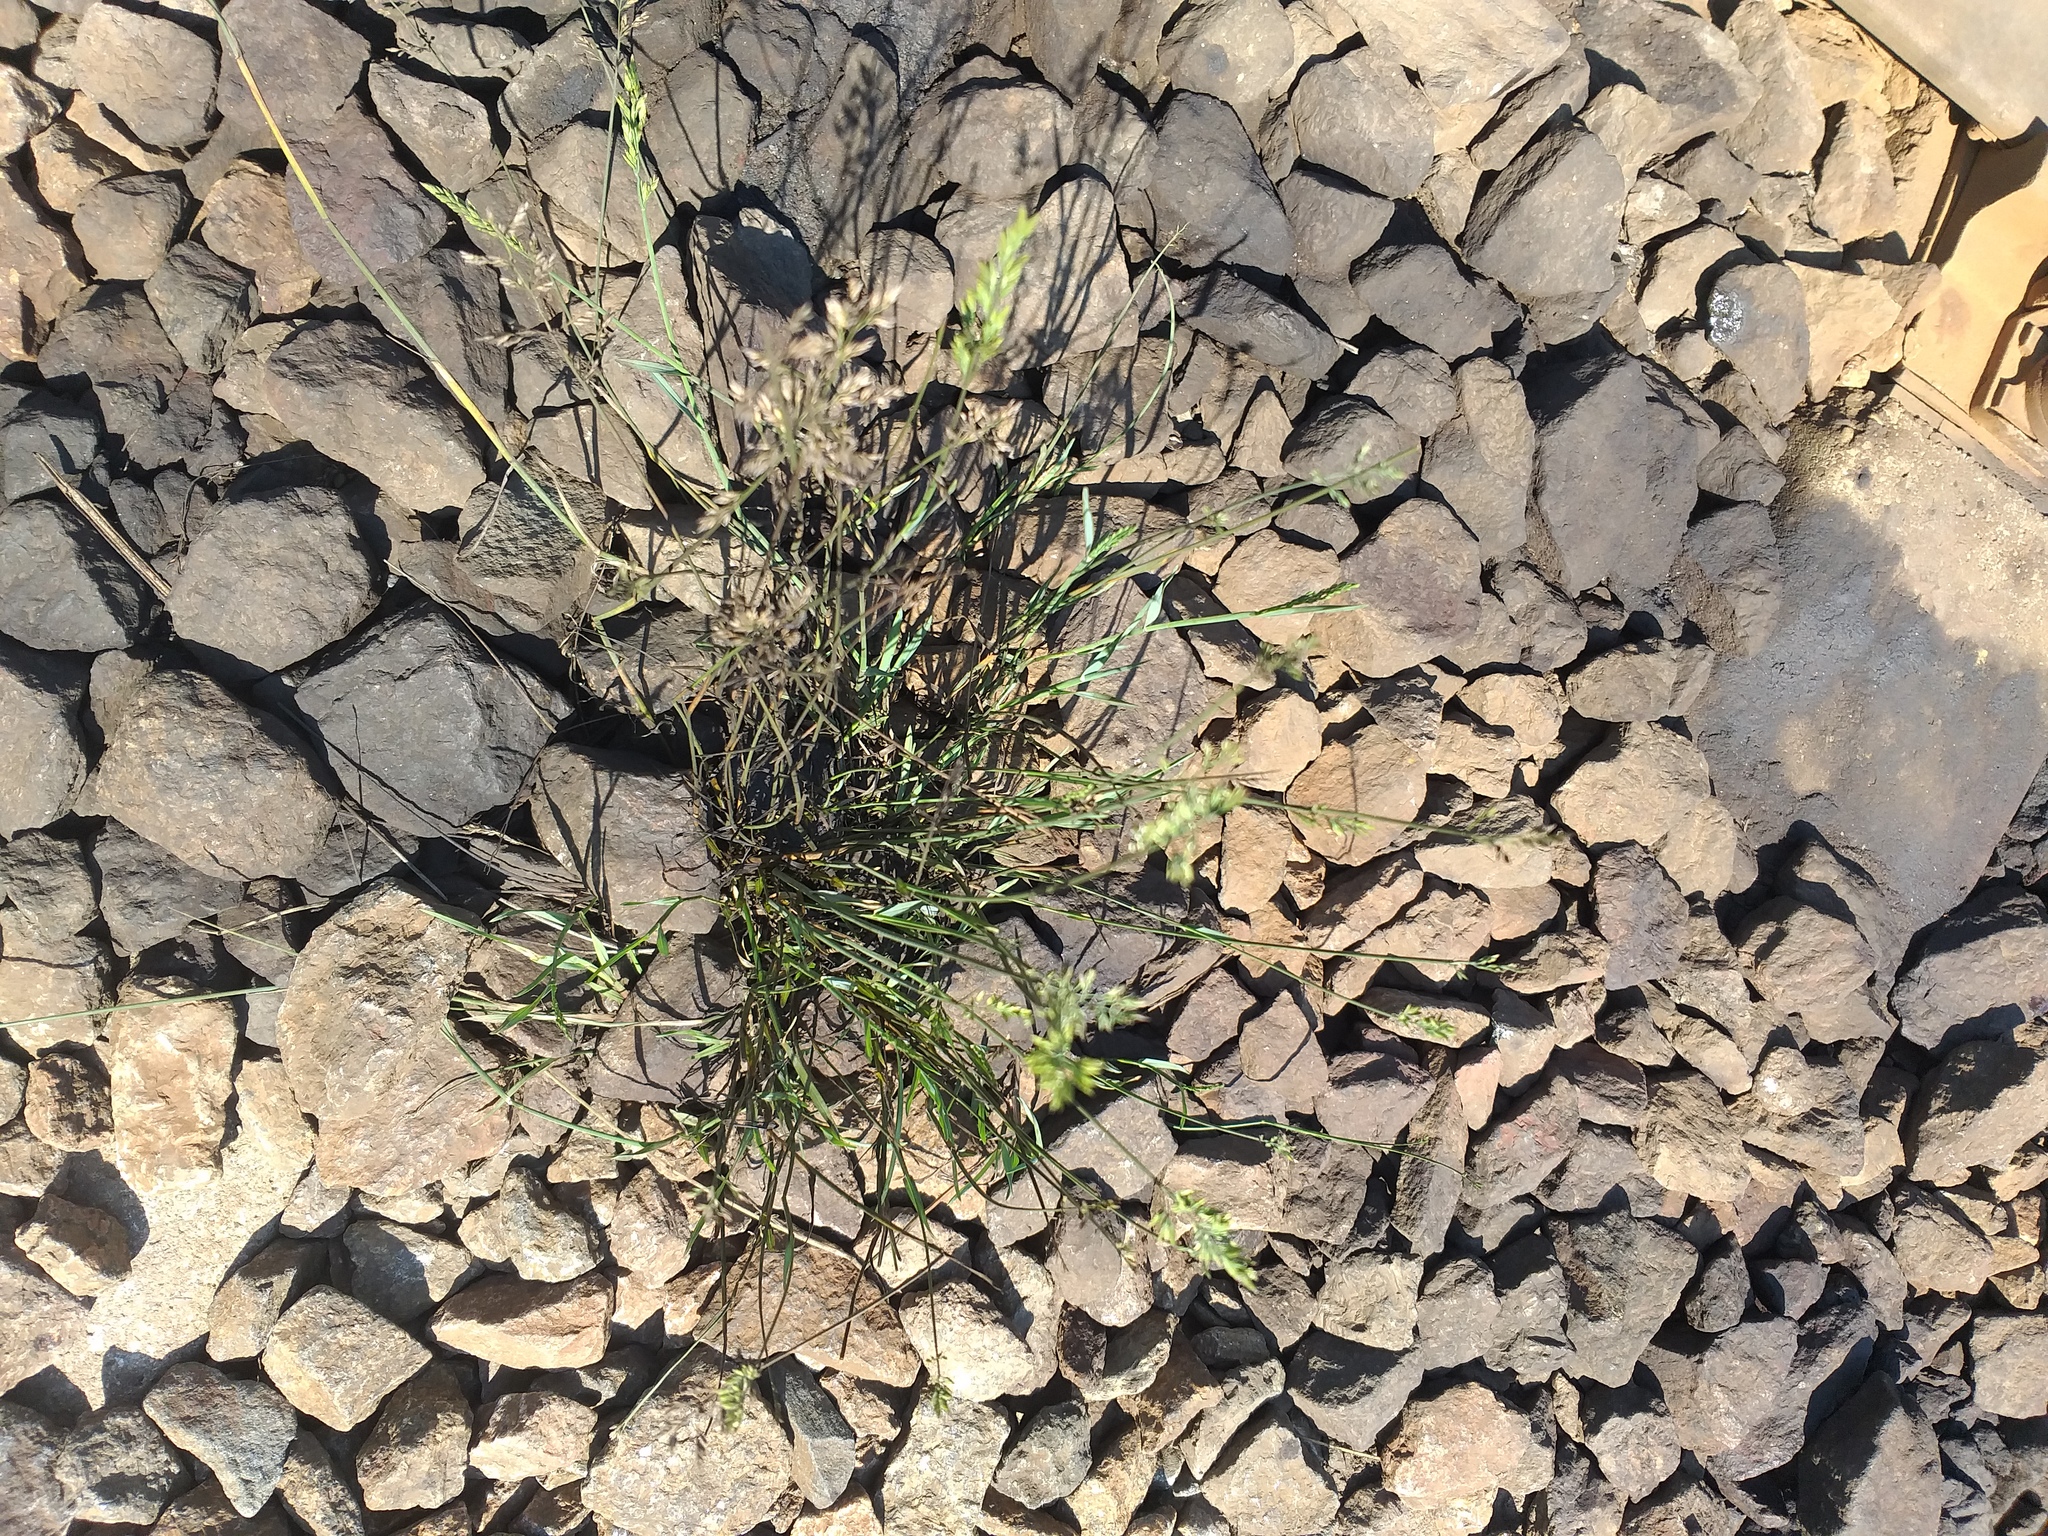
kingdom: Plantae
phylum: Tracheophyta
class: Liliopsida
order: Poales
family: Poaceae
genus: Poa
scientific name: Poa compressa
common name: Canada bluegrass
